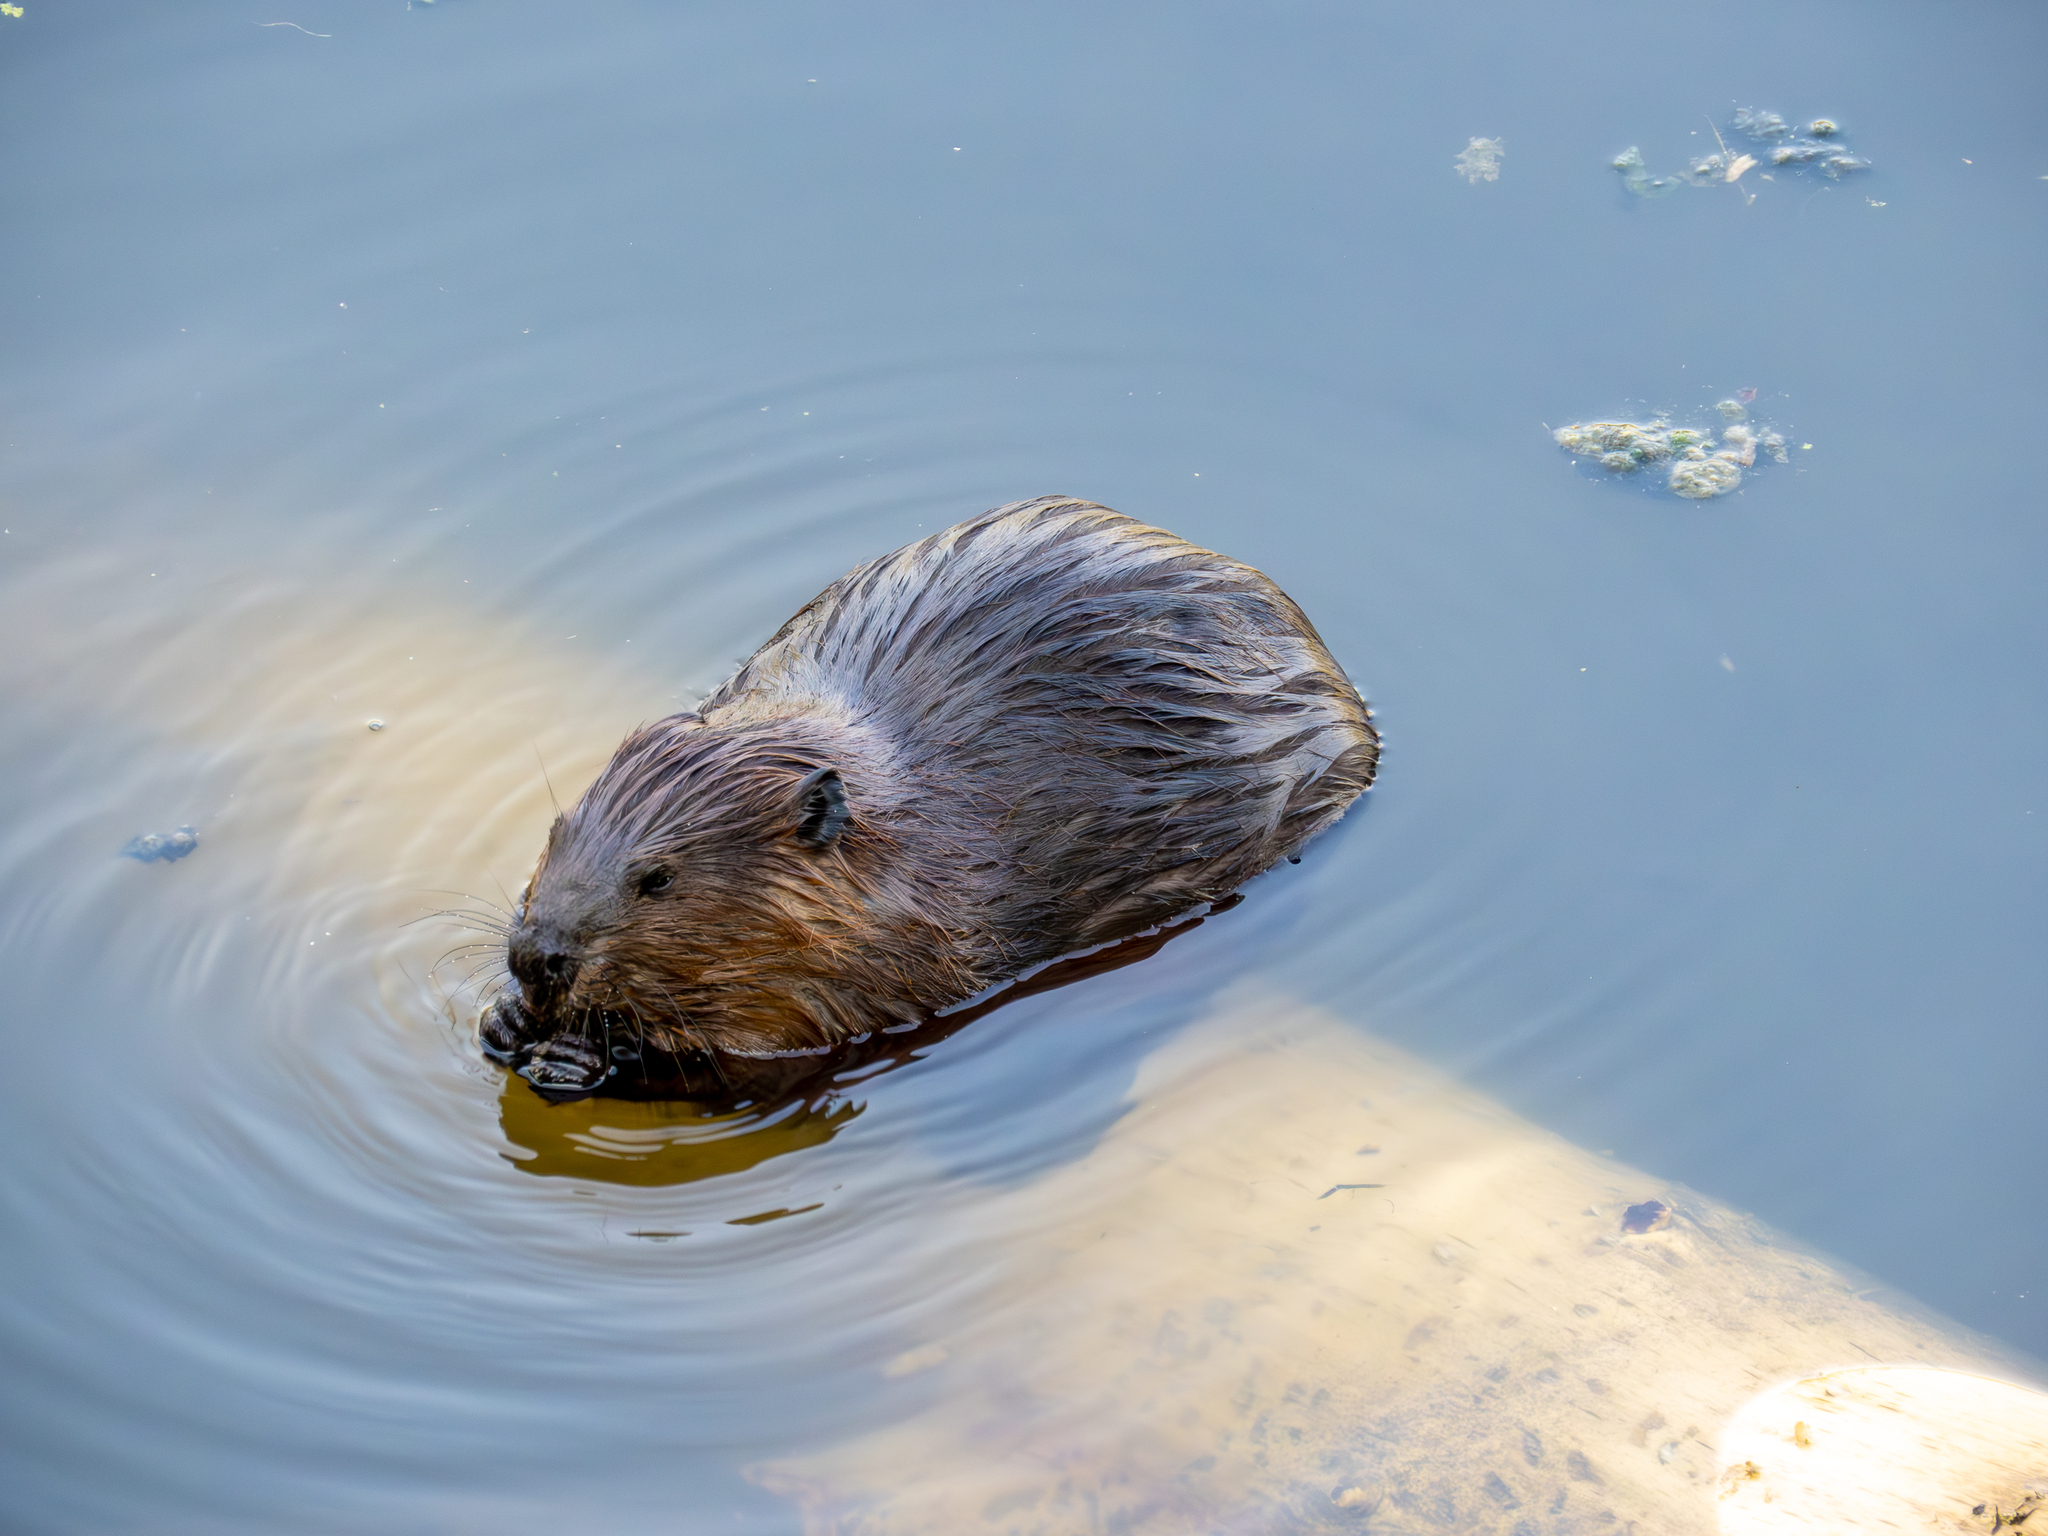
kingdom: Animalia
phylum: Chordata
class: Mammalia
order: Rodentia
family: Castoridae
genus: Castor
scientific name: Castor canadensis
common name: American beaver
